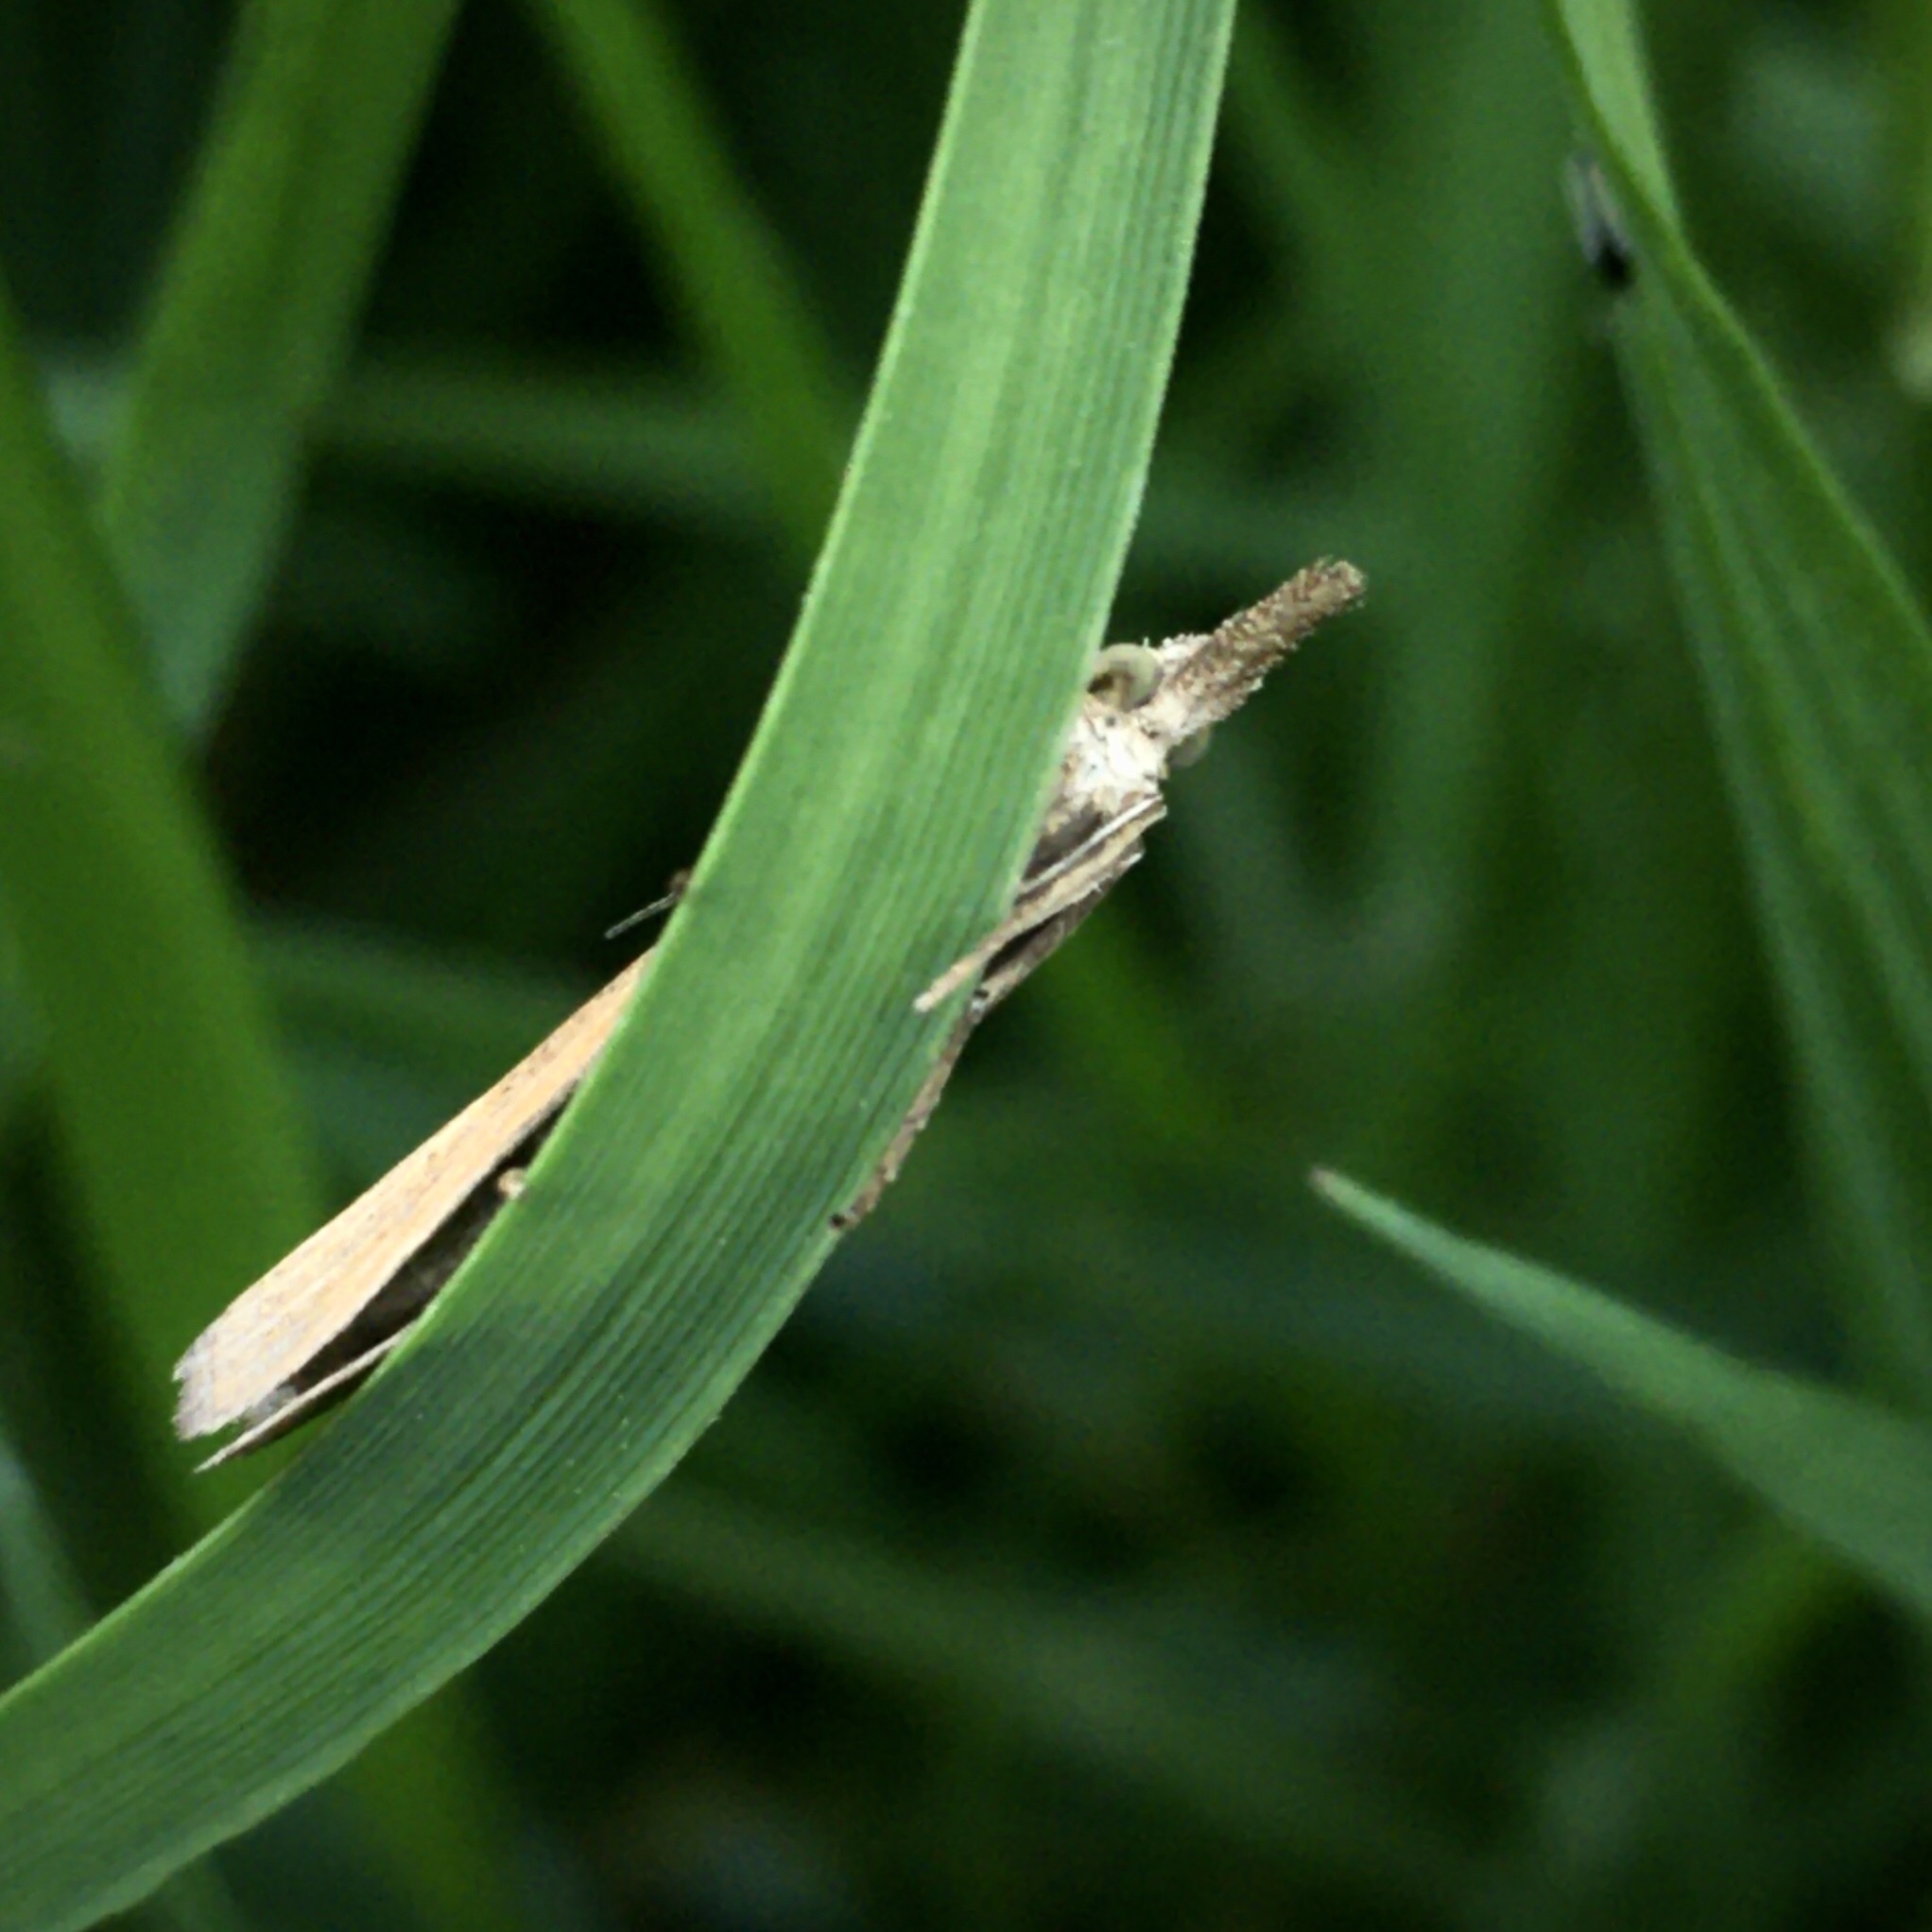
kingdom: Animalia
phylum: Arthropoda
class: Insecta
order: Lepidoptera
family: Crambidae
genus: Pediasia
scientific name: Pediasia luteella
